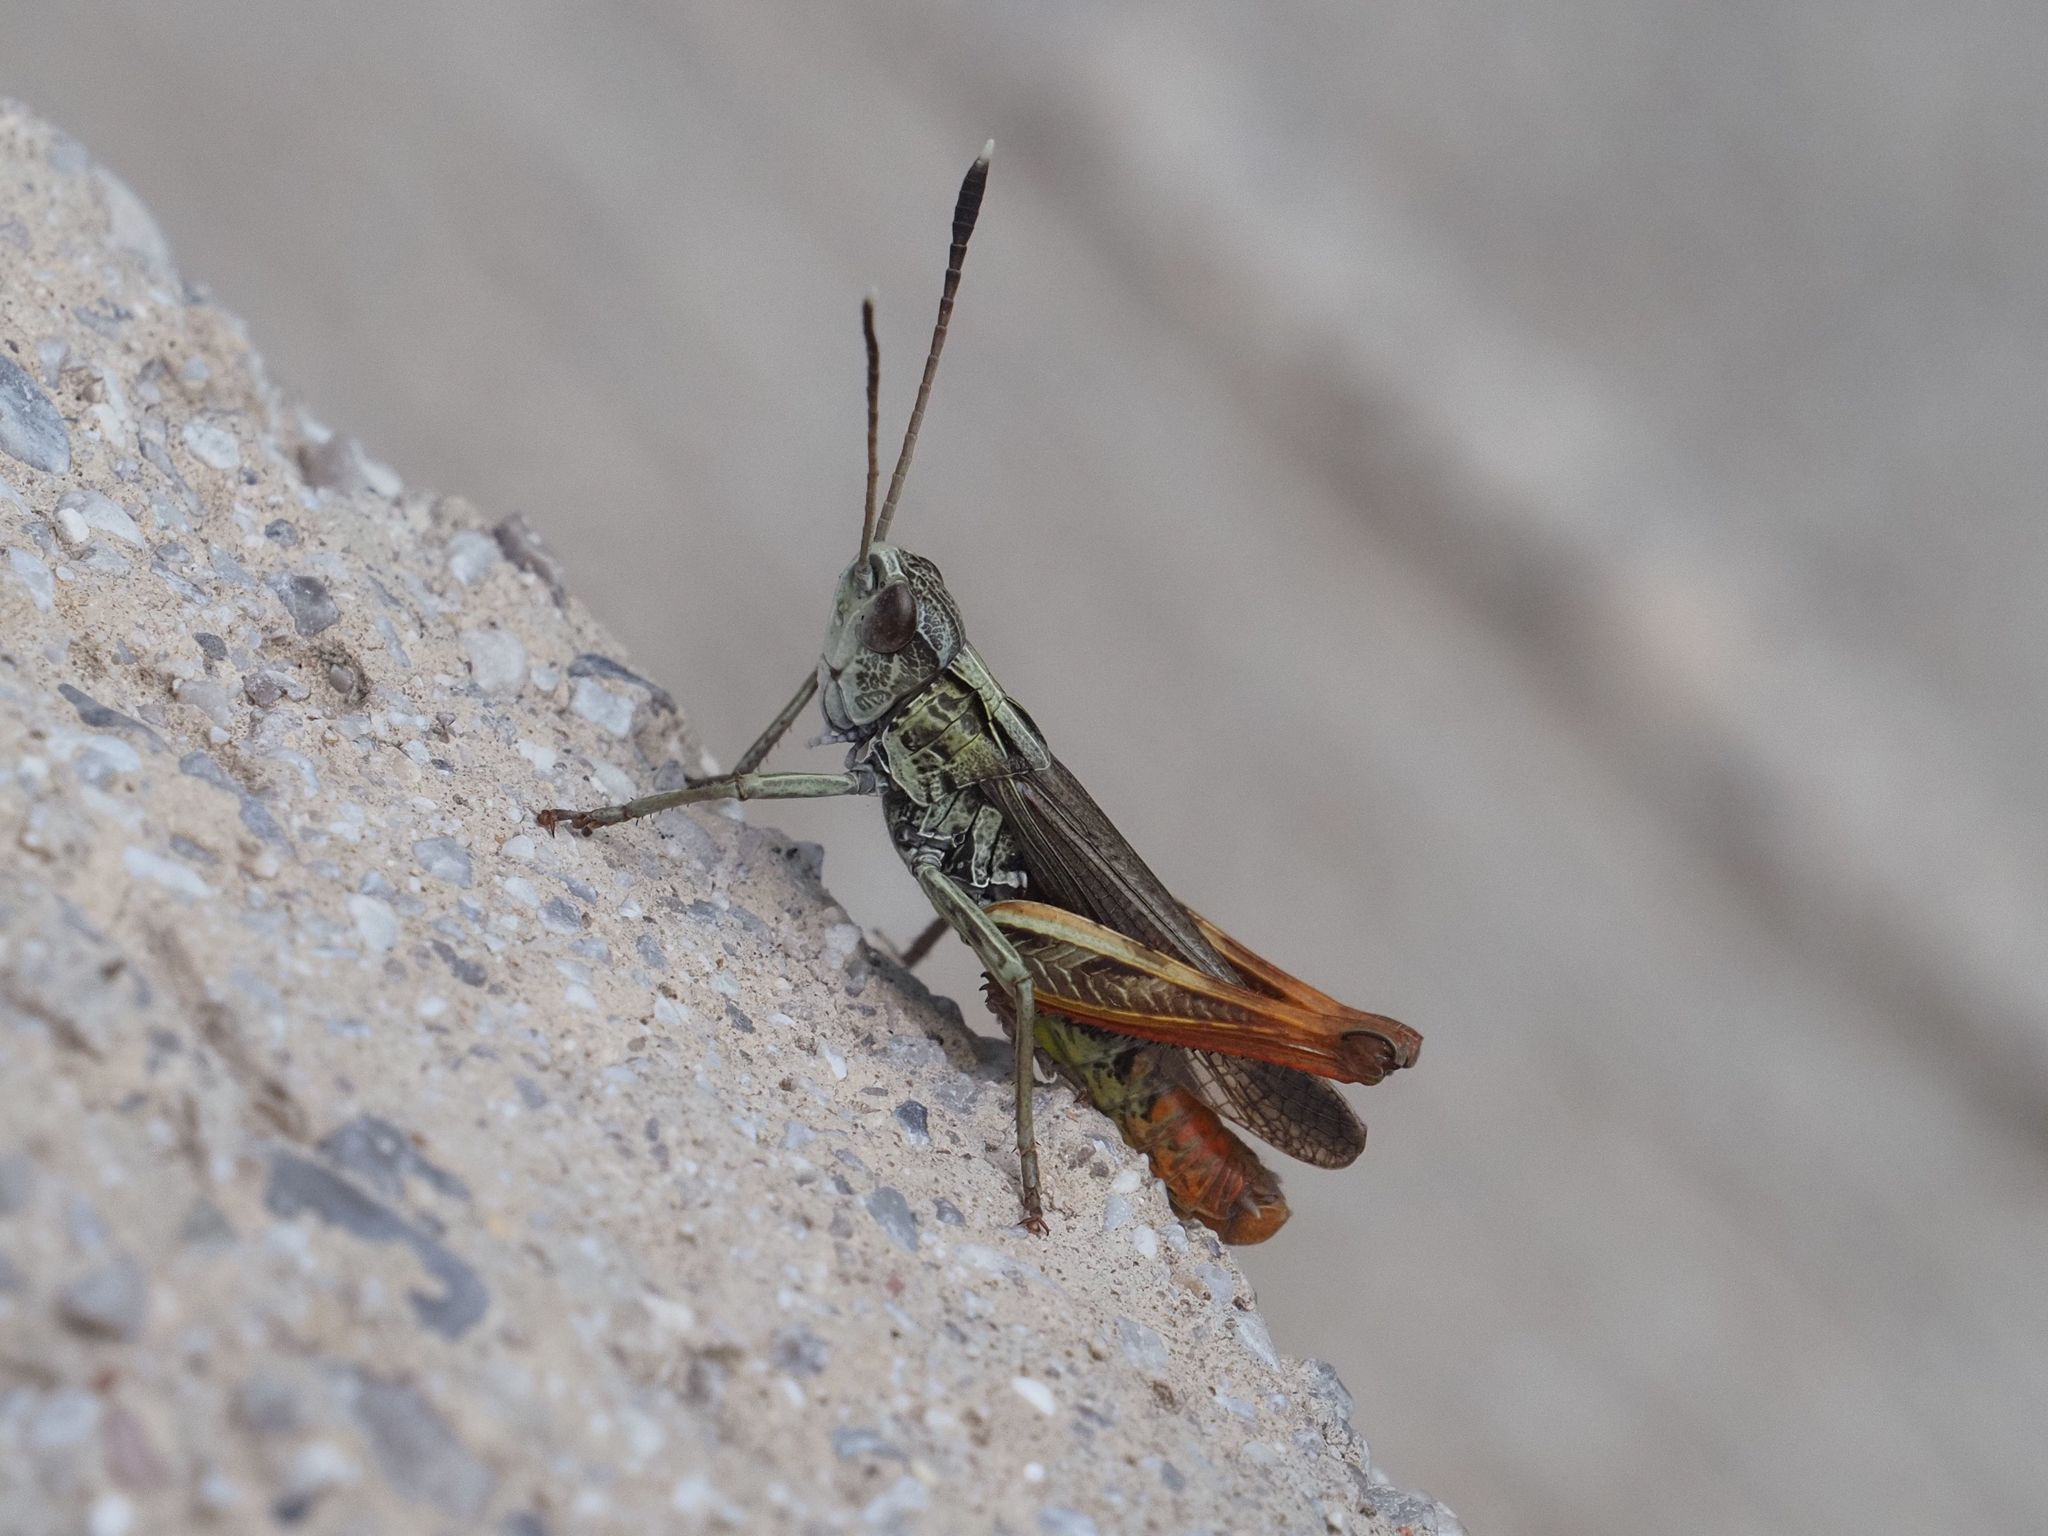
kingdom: Animalia
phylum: Arthropoda
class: Insecta
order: Orthoptera
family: Acrididae
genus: Gomphocerippus
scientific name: Gomphocerippus rufus
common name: Rufous grasshopper
